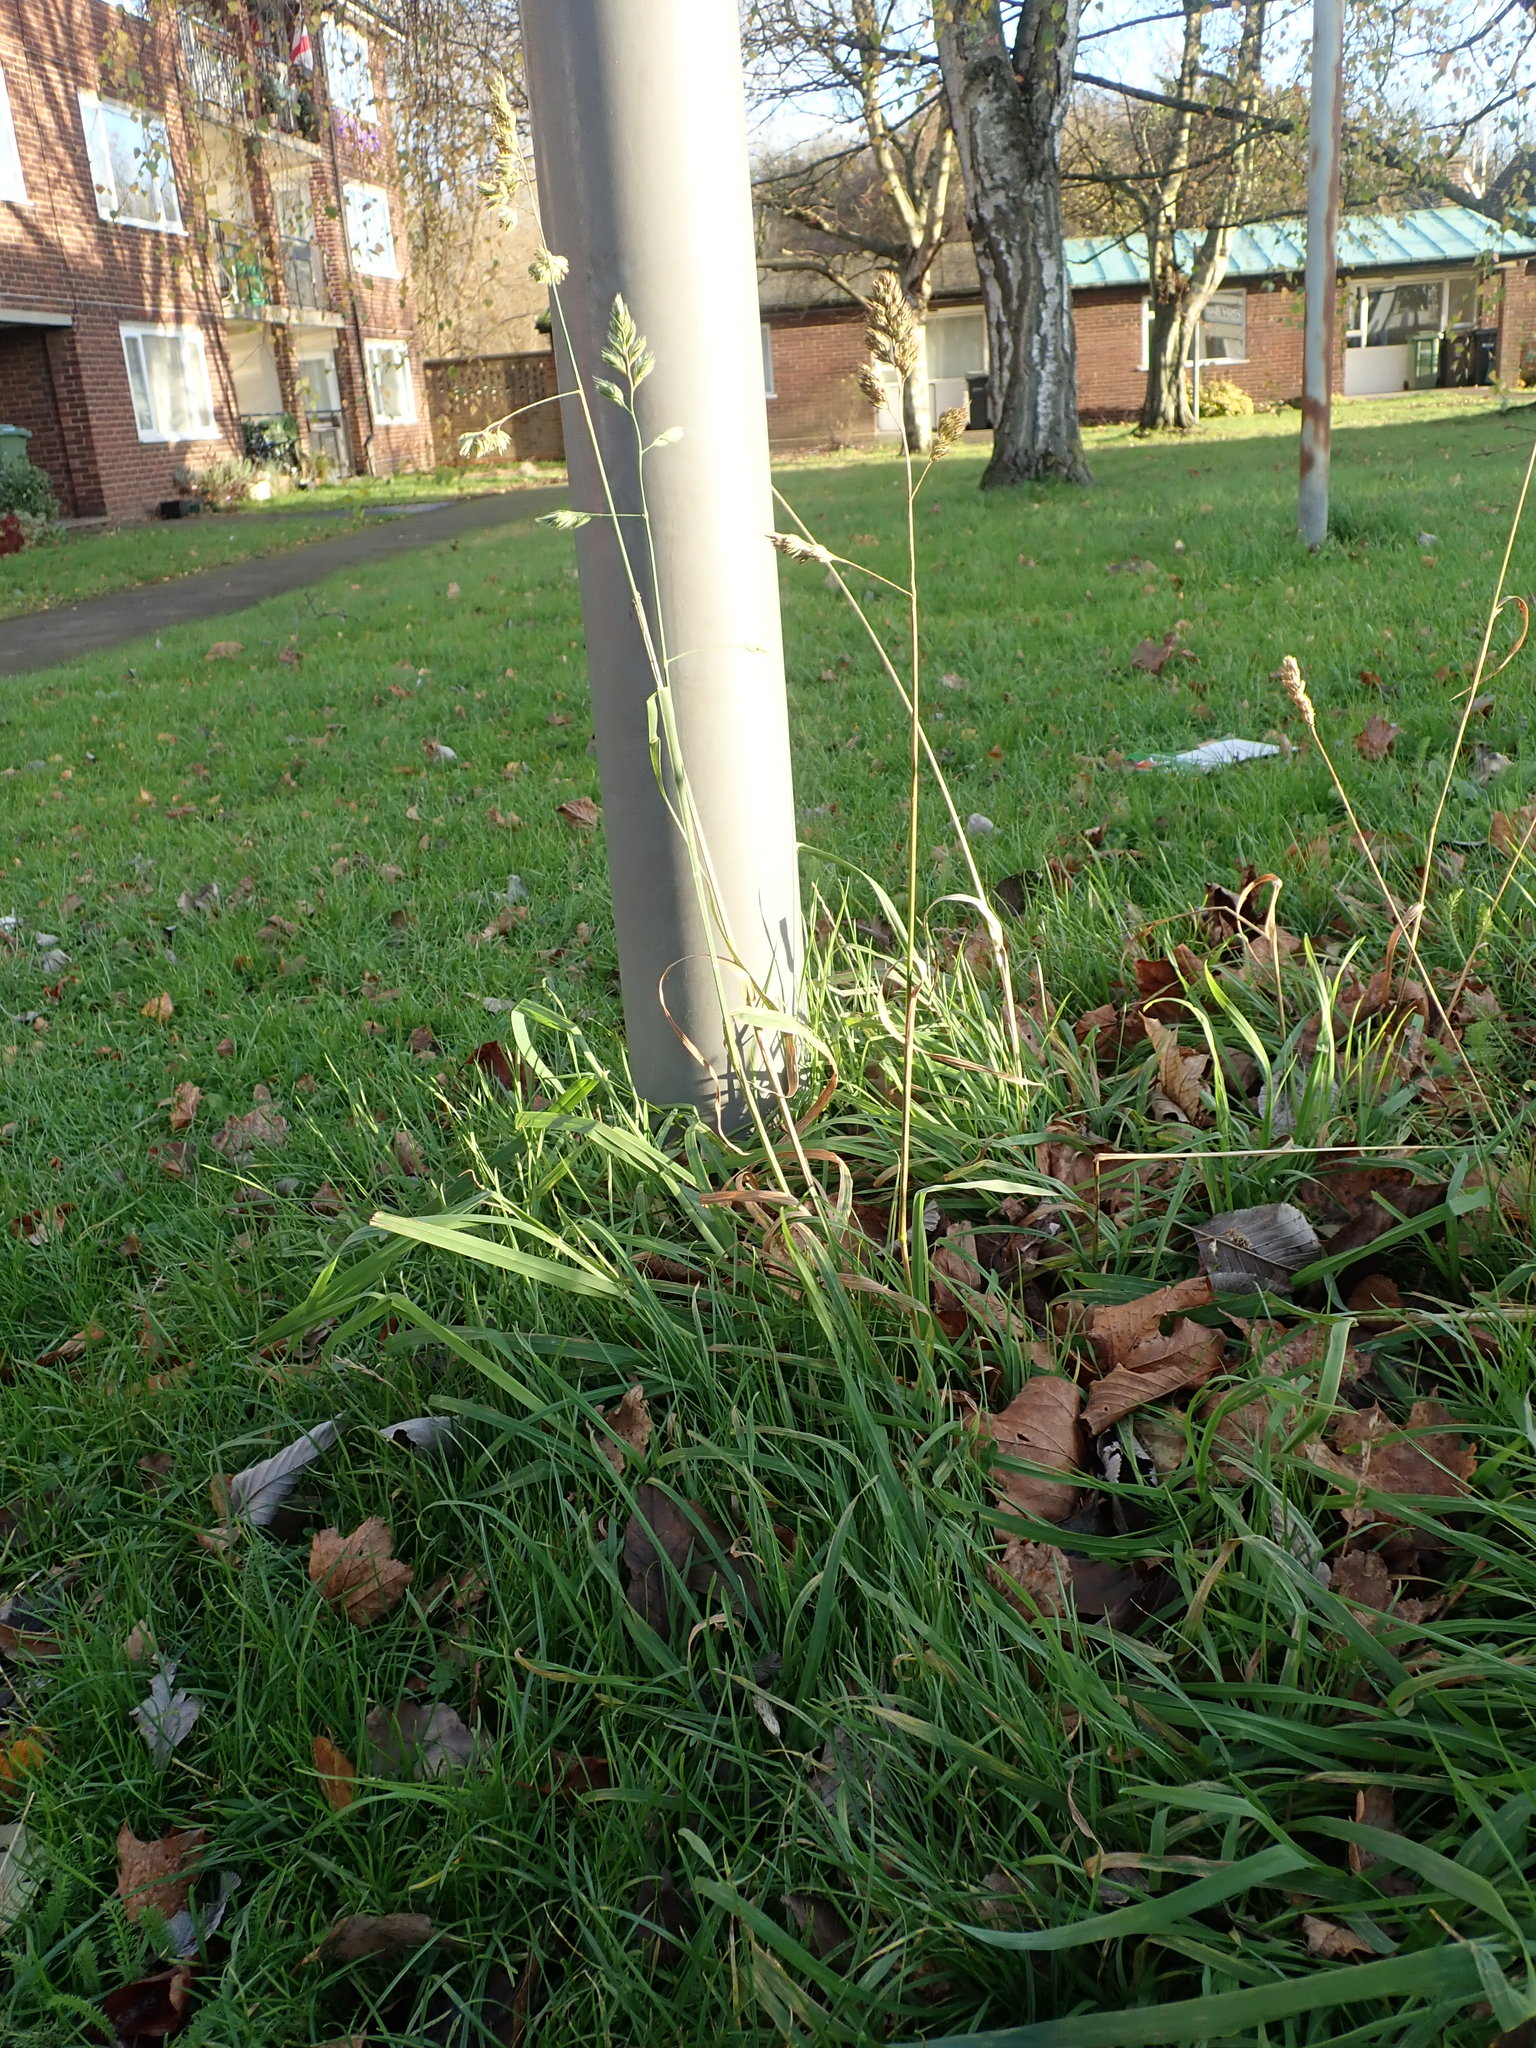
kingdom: Plantae
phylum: Tracheophyta
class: Liliopsida
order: Poales
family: Poaceae
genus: Dactylis
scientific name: Dactylis glomerata
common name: Orchardgrass
